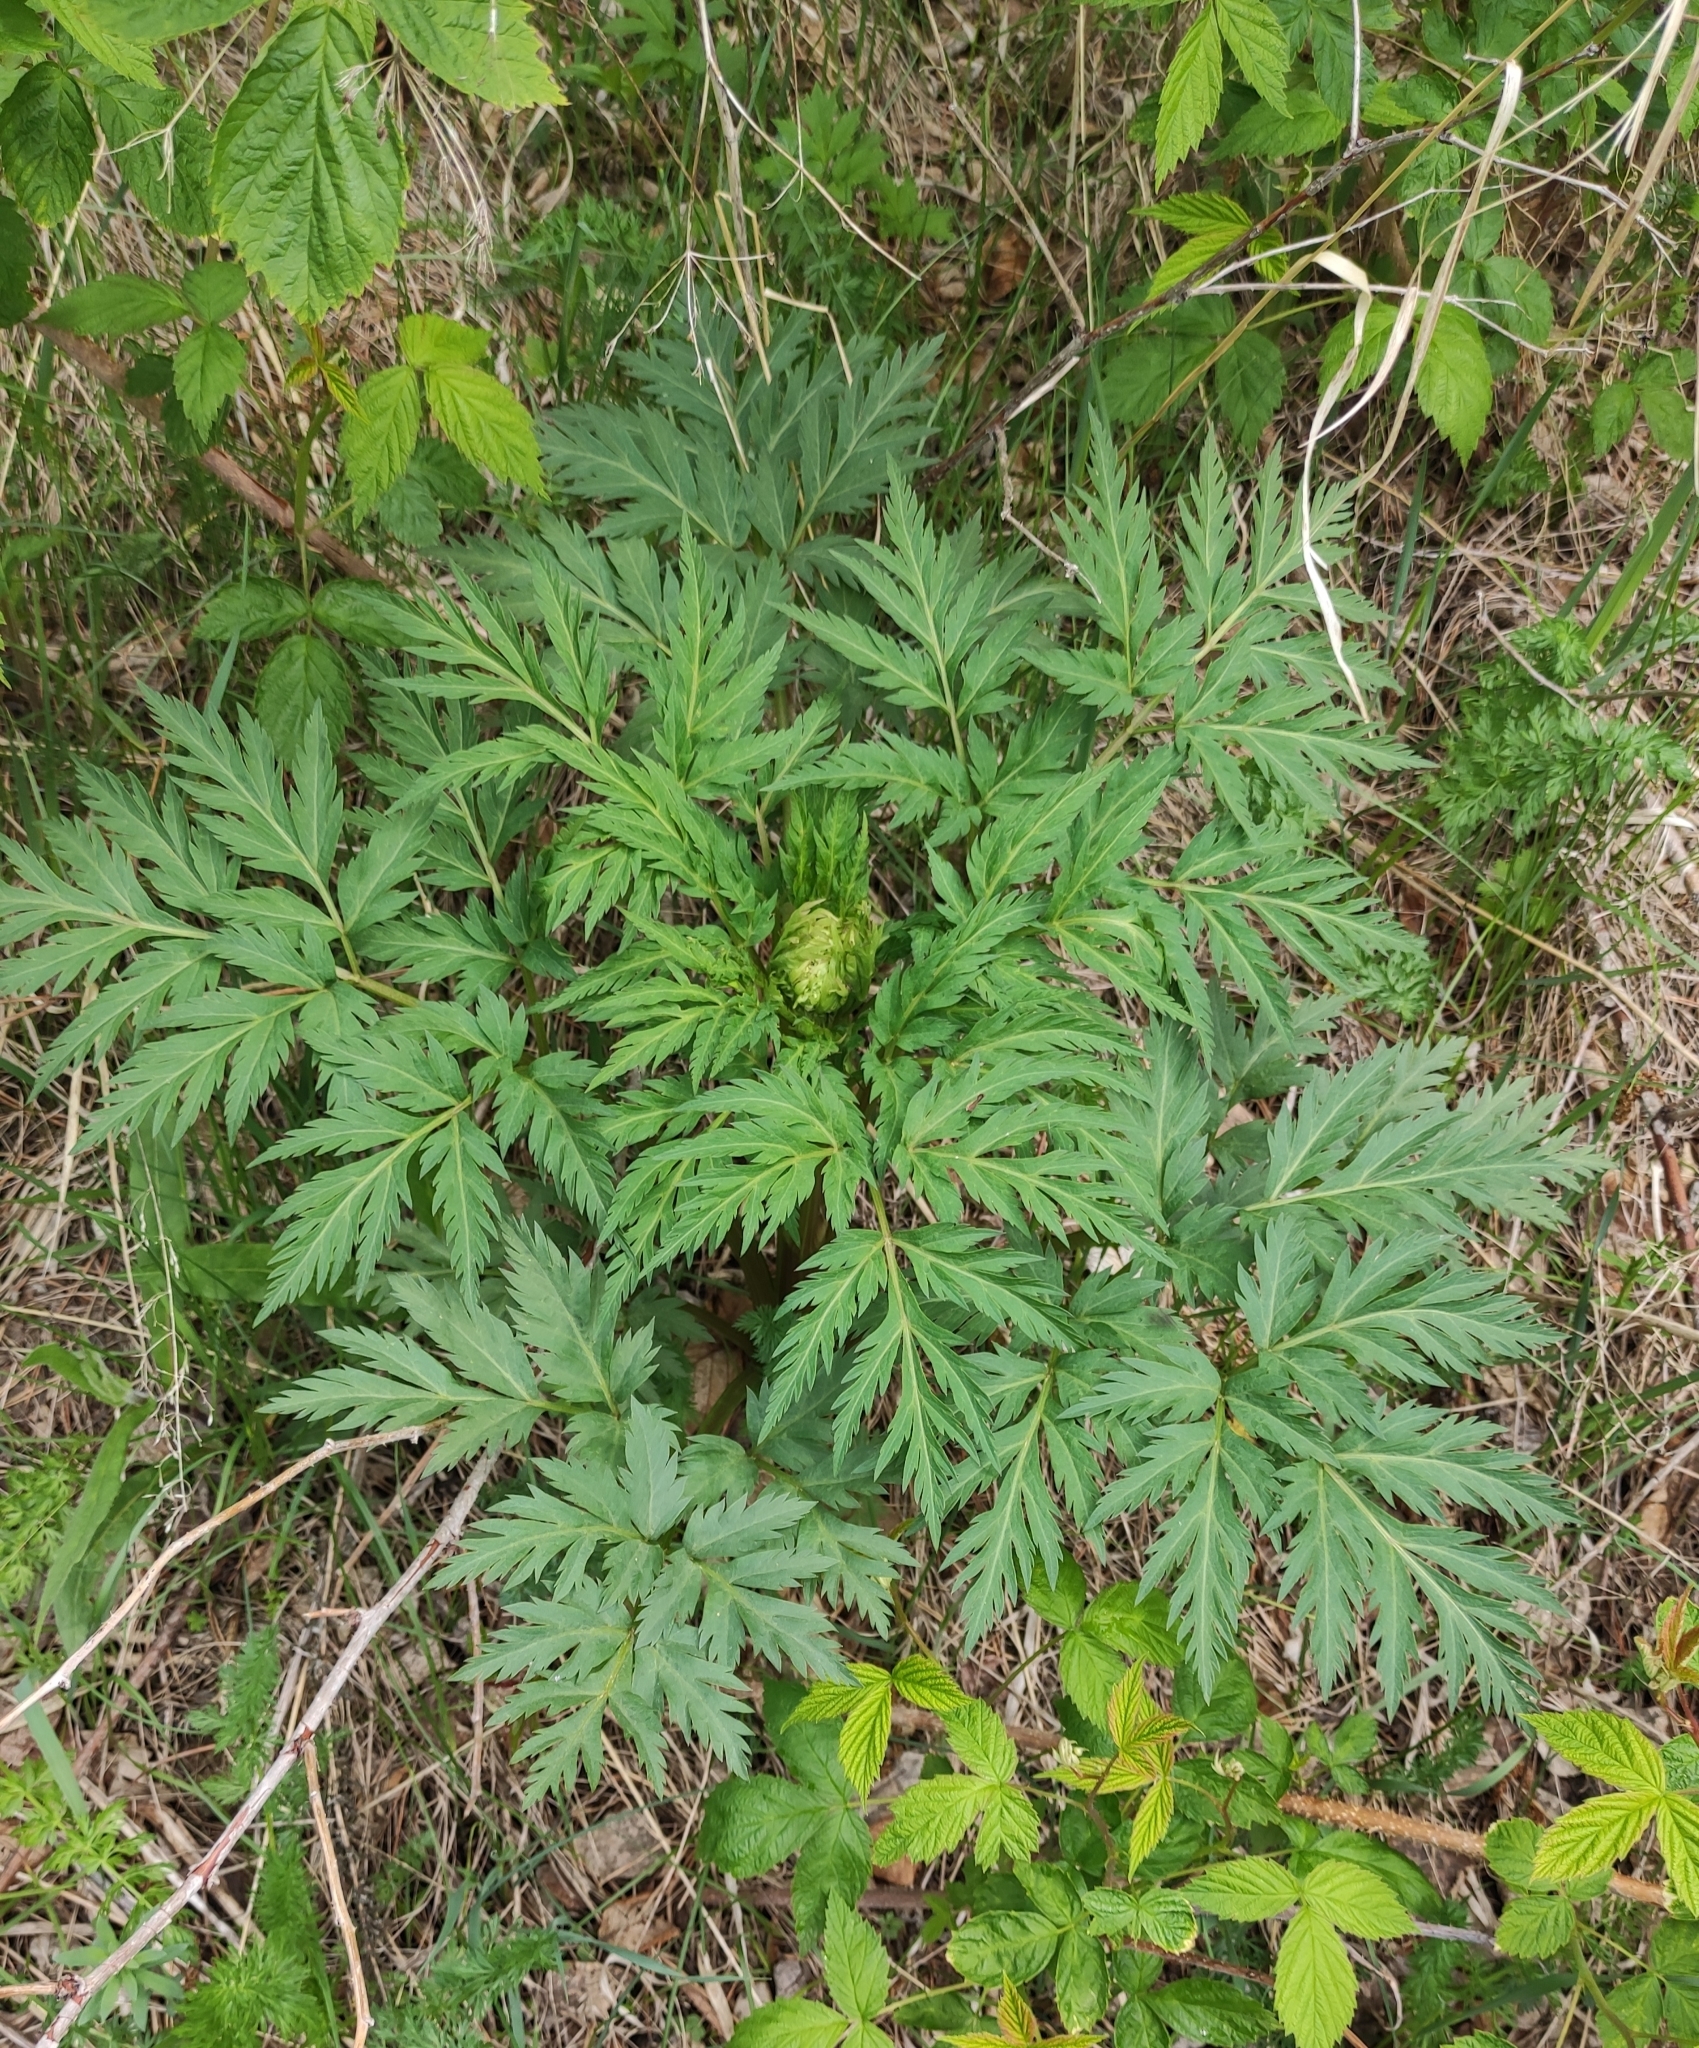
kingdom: Plantae
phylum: Tracheophyta
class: Magnoliopsida
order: Apiales
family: Apiaceae
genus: Pleurospermum
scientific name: Pleurospermum uralense
